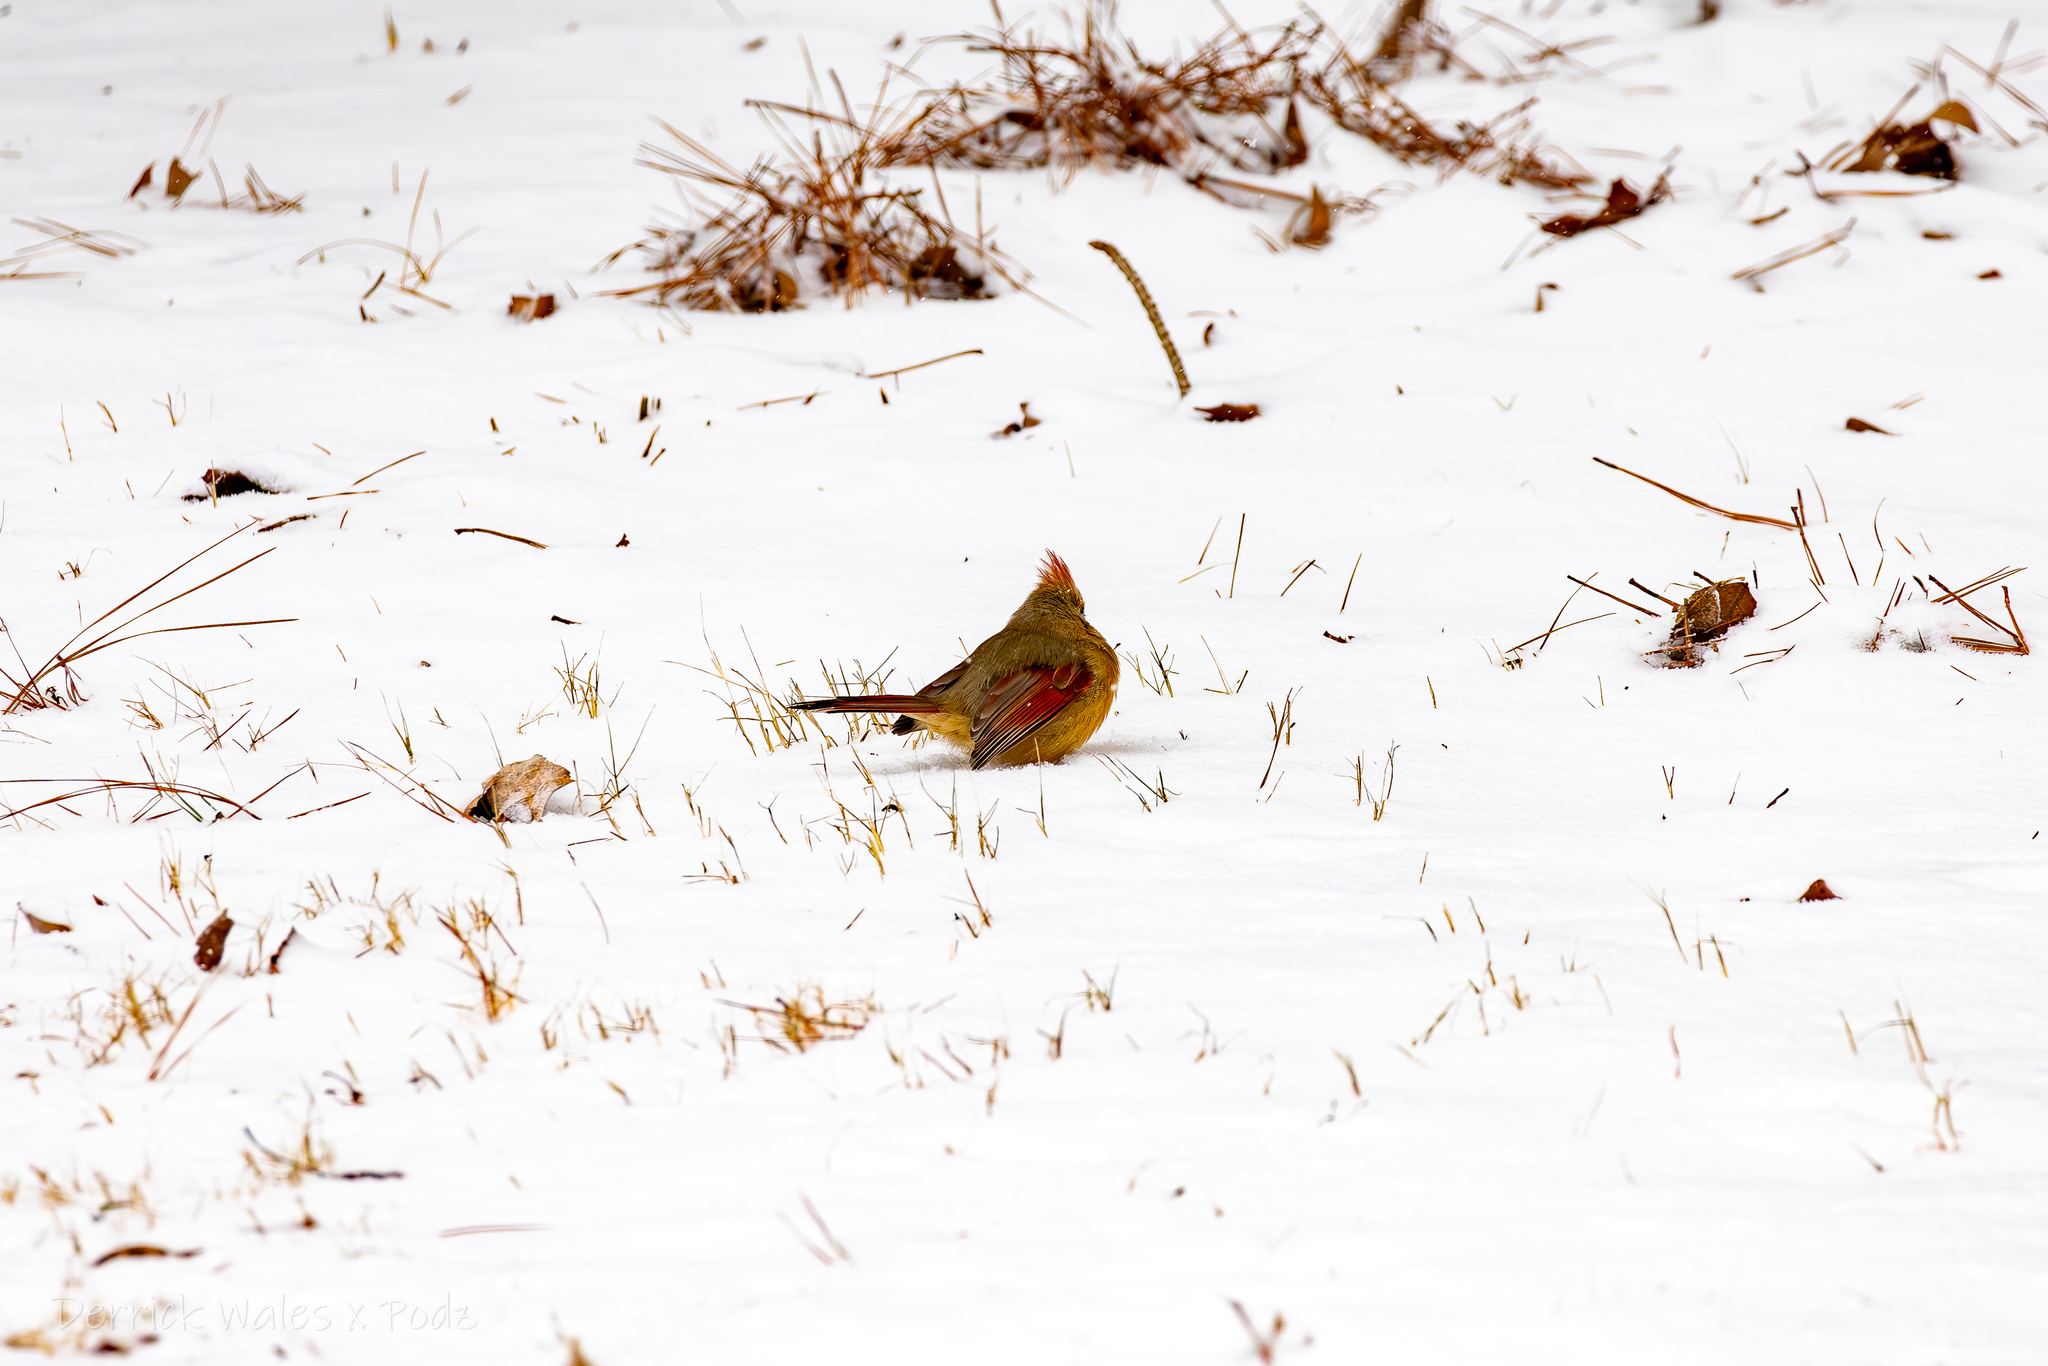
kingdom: Animalia
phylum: Chordata
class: Aves
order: Passeriformes
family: Cardinalidae
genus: Cardinalis
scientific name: Cardinalis cardinalis
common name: Northern cardinal
